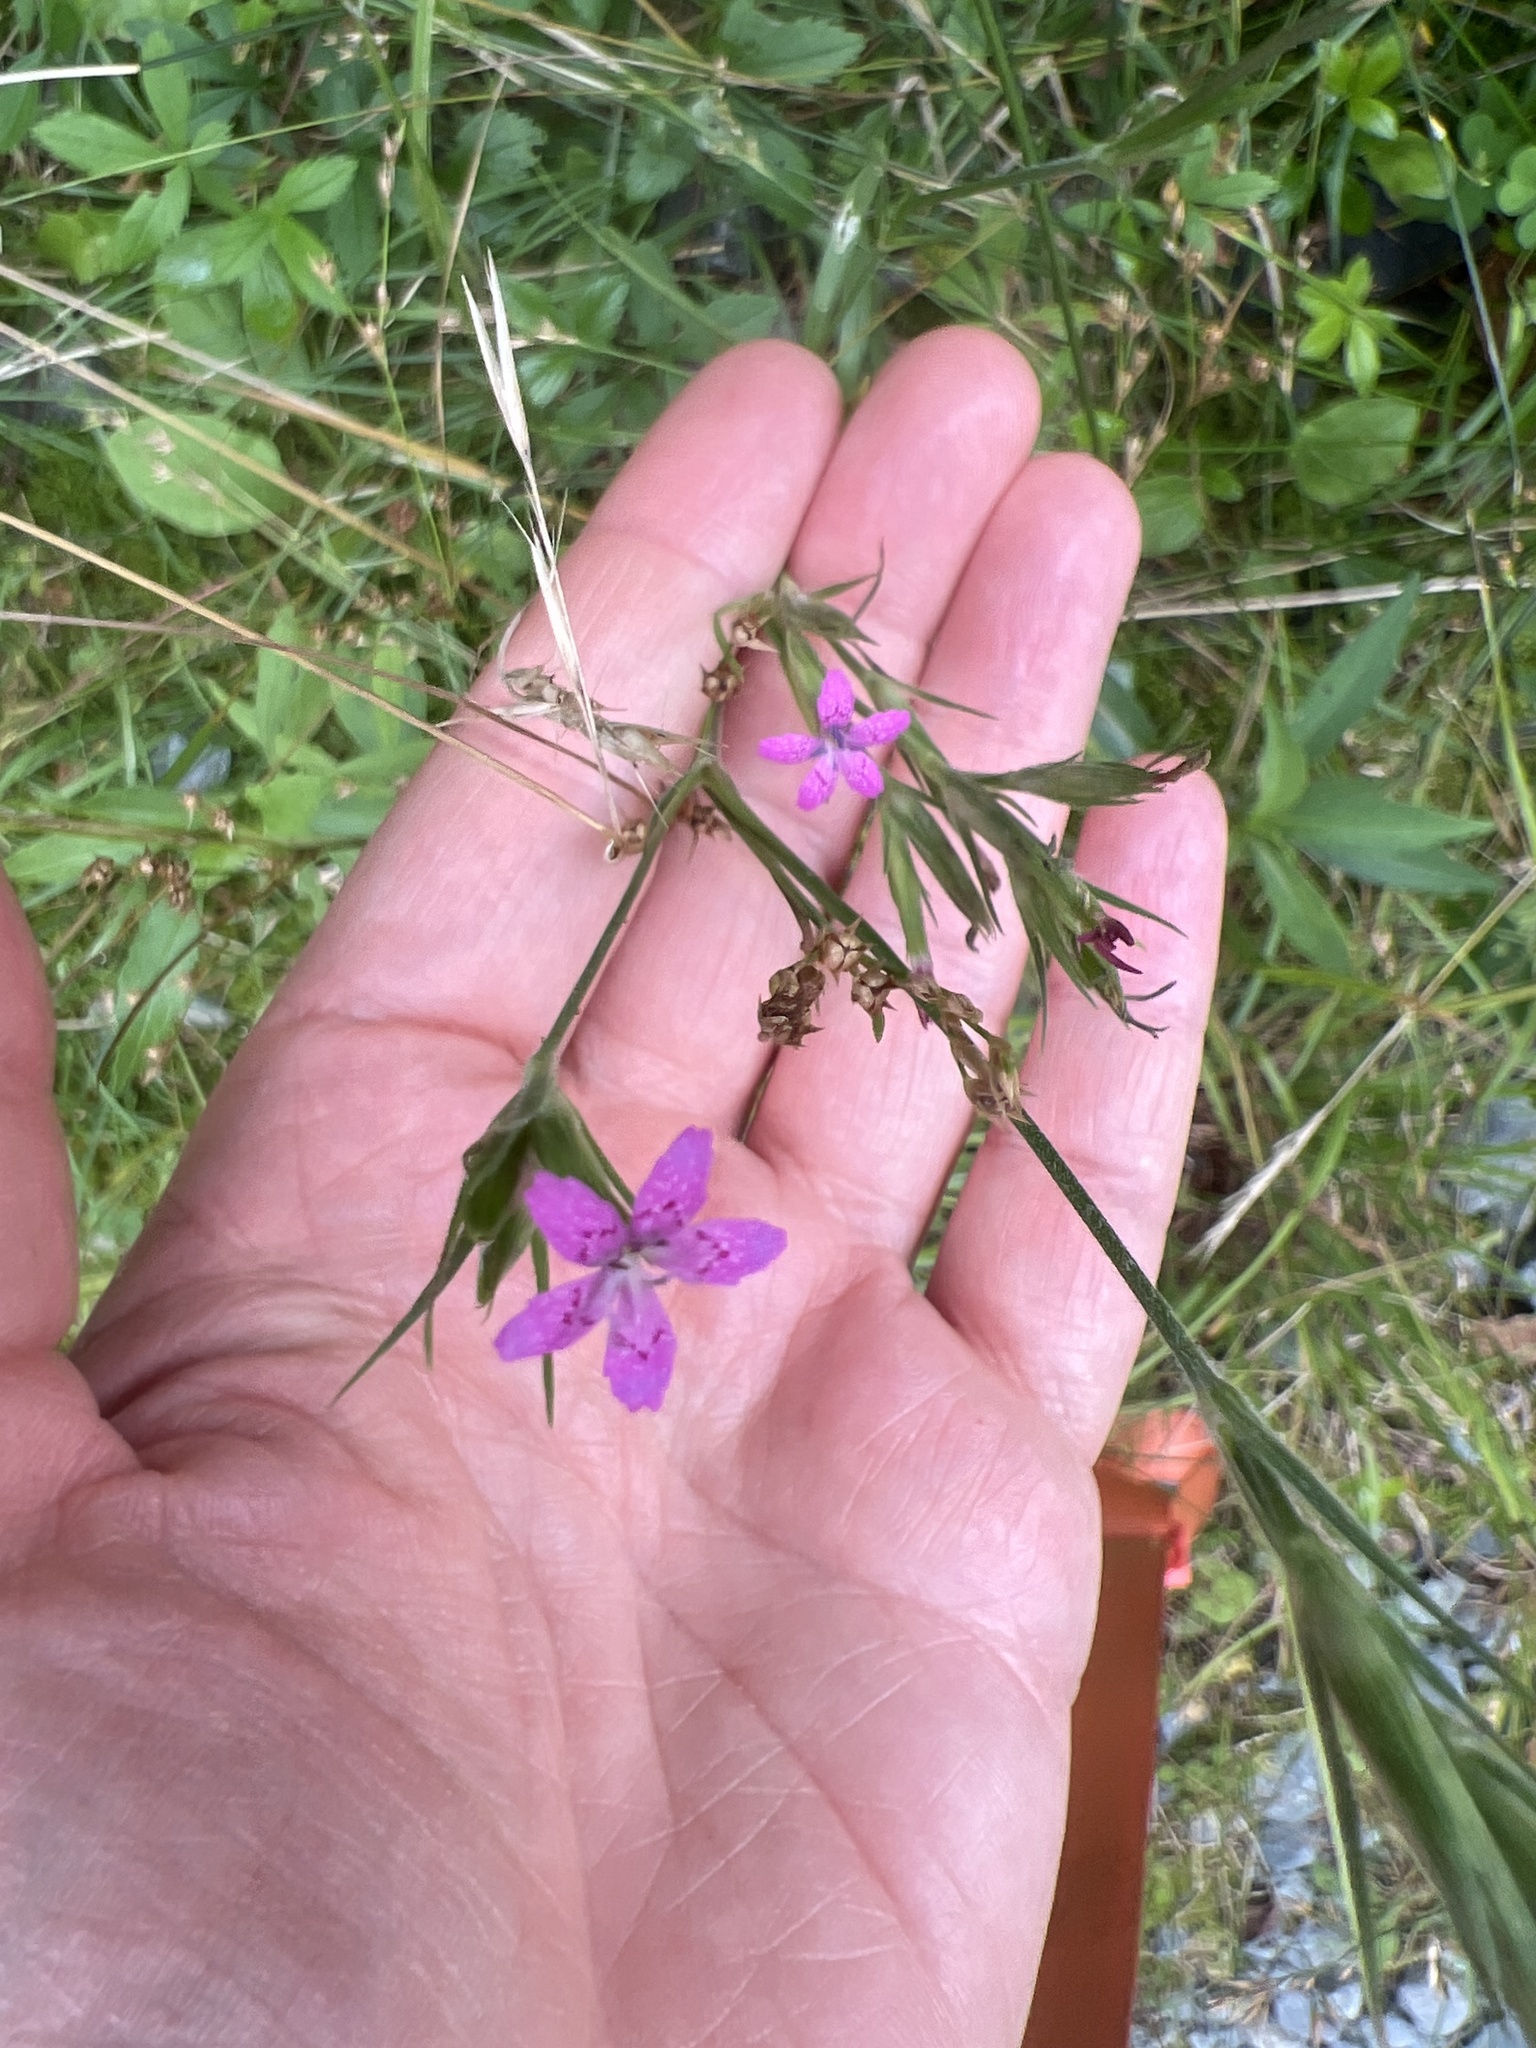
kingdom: Plantae
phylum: Tracheophyta
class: Magnoliopsida
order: Caryophyllales
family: Caryophyllaceae
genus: Dianthus
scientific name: Dianthus armeria
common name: Deptford pink
